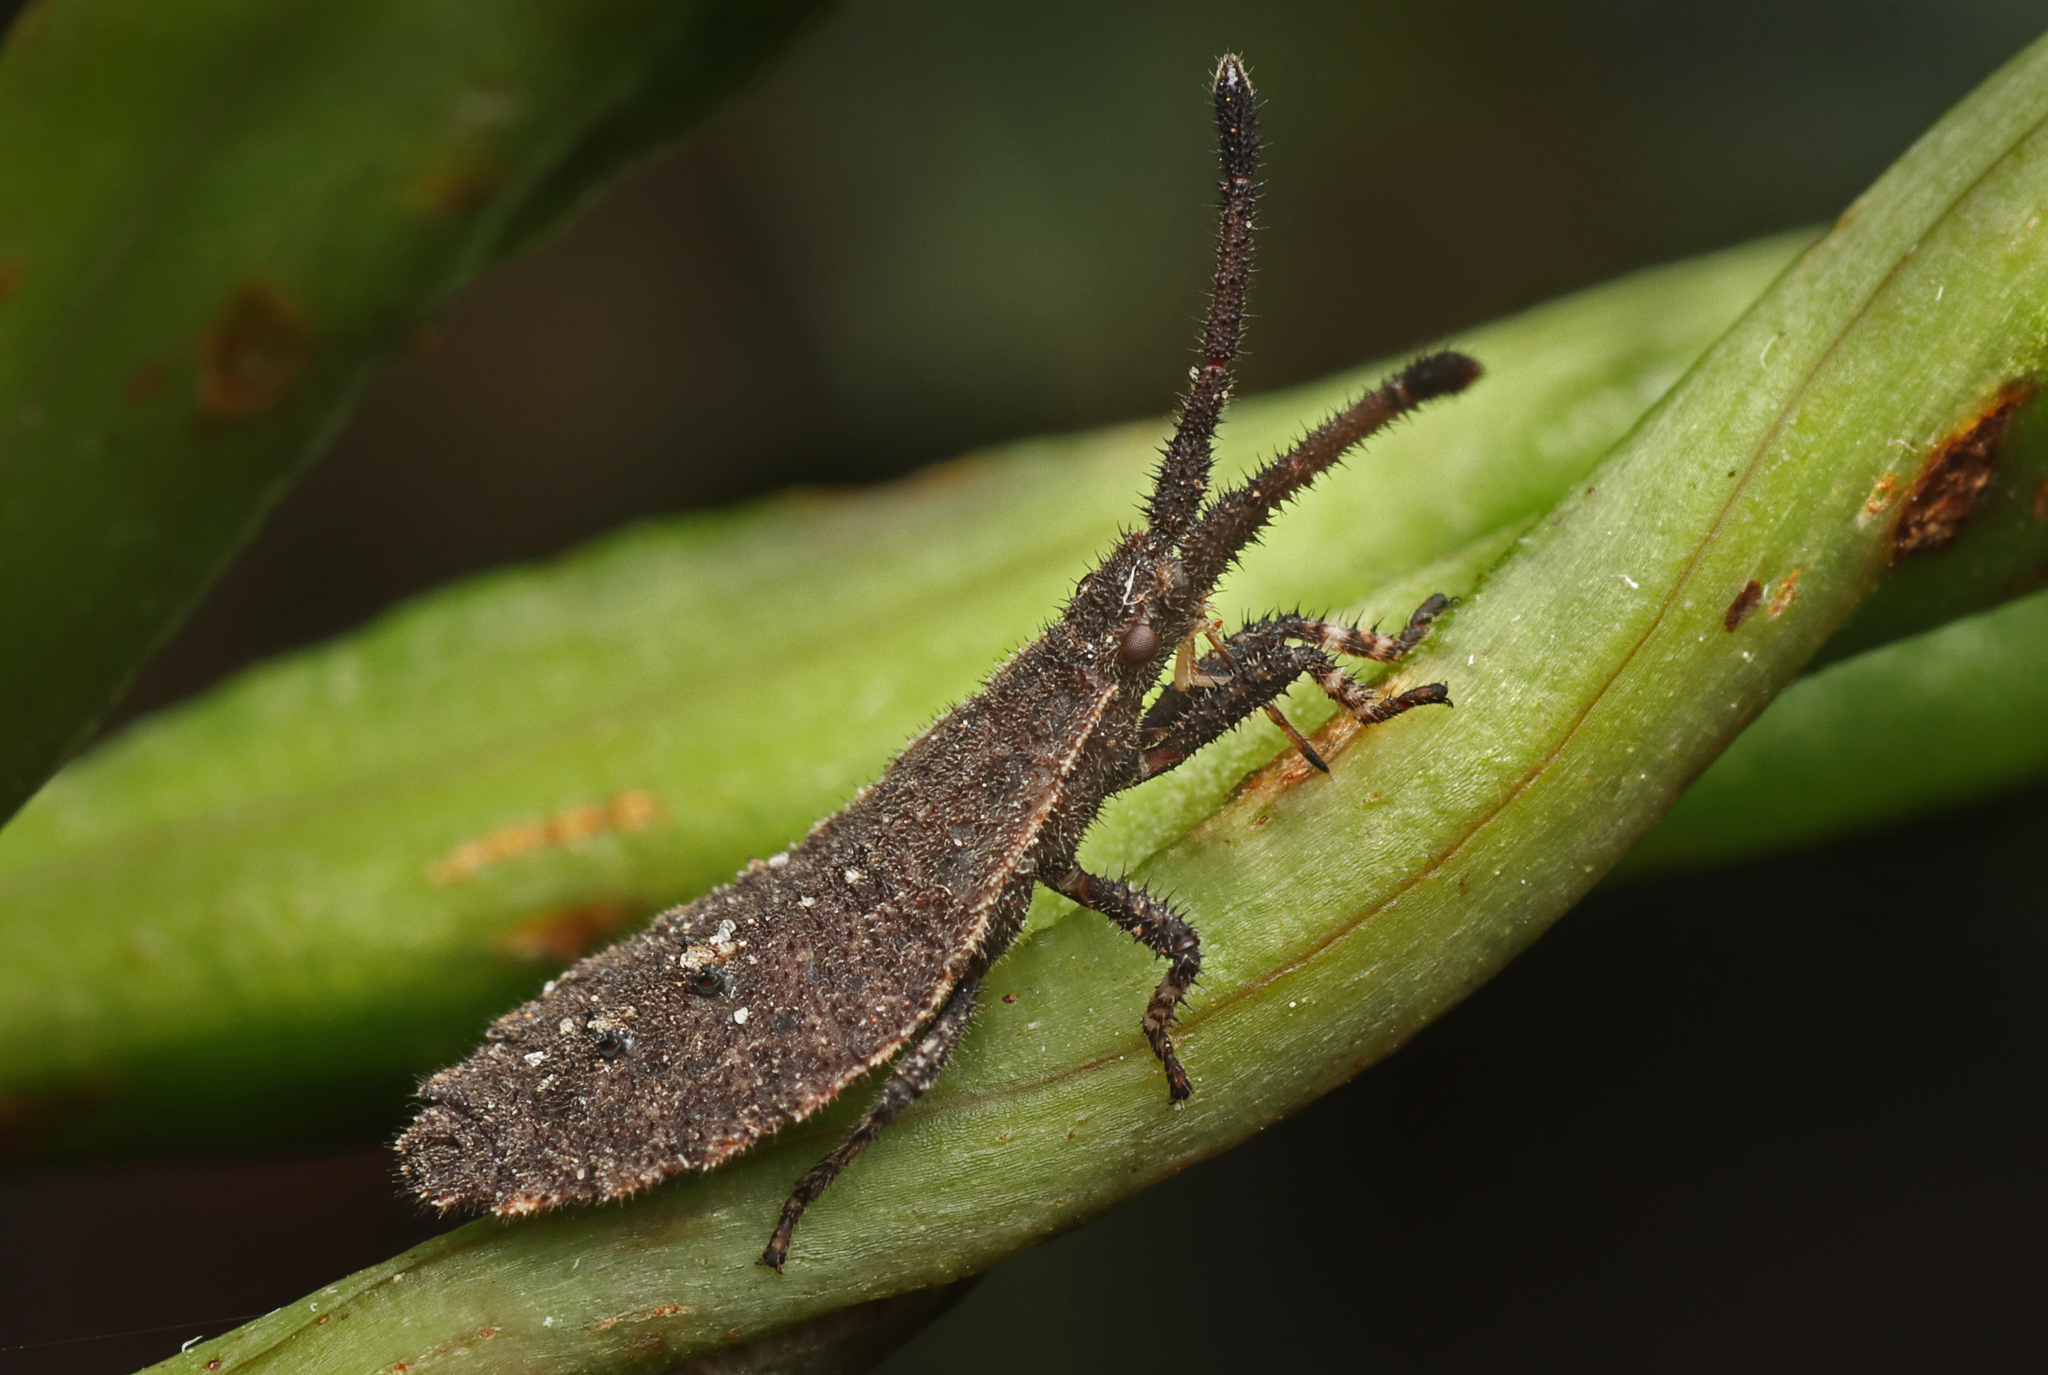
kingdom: Animalia
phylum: Arthropoda
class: Insecta
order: Hemiptera
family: Coreidae
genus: Agriopocoris
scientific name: Agriopocoris froggatti
